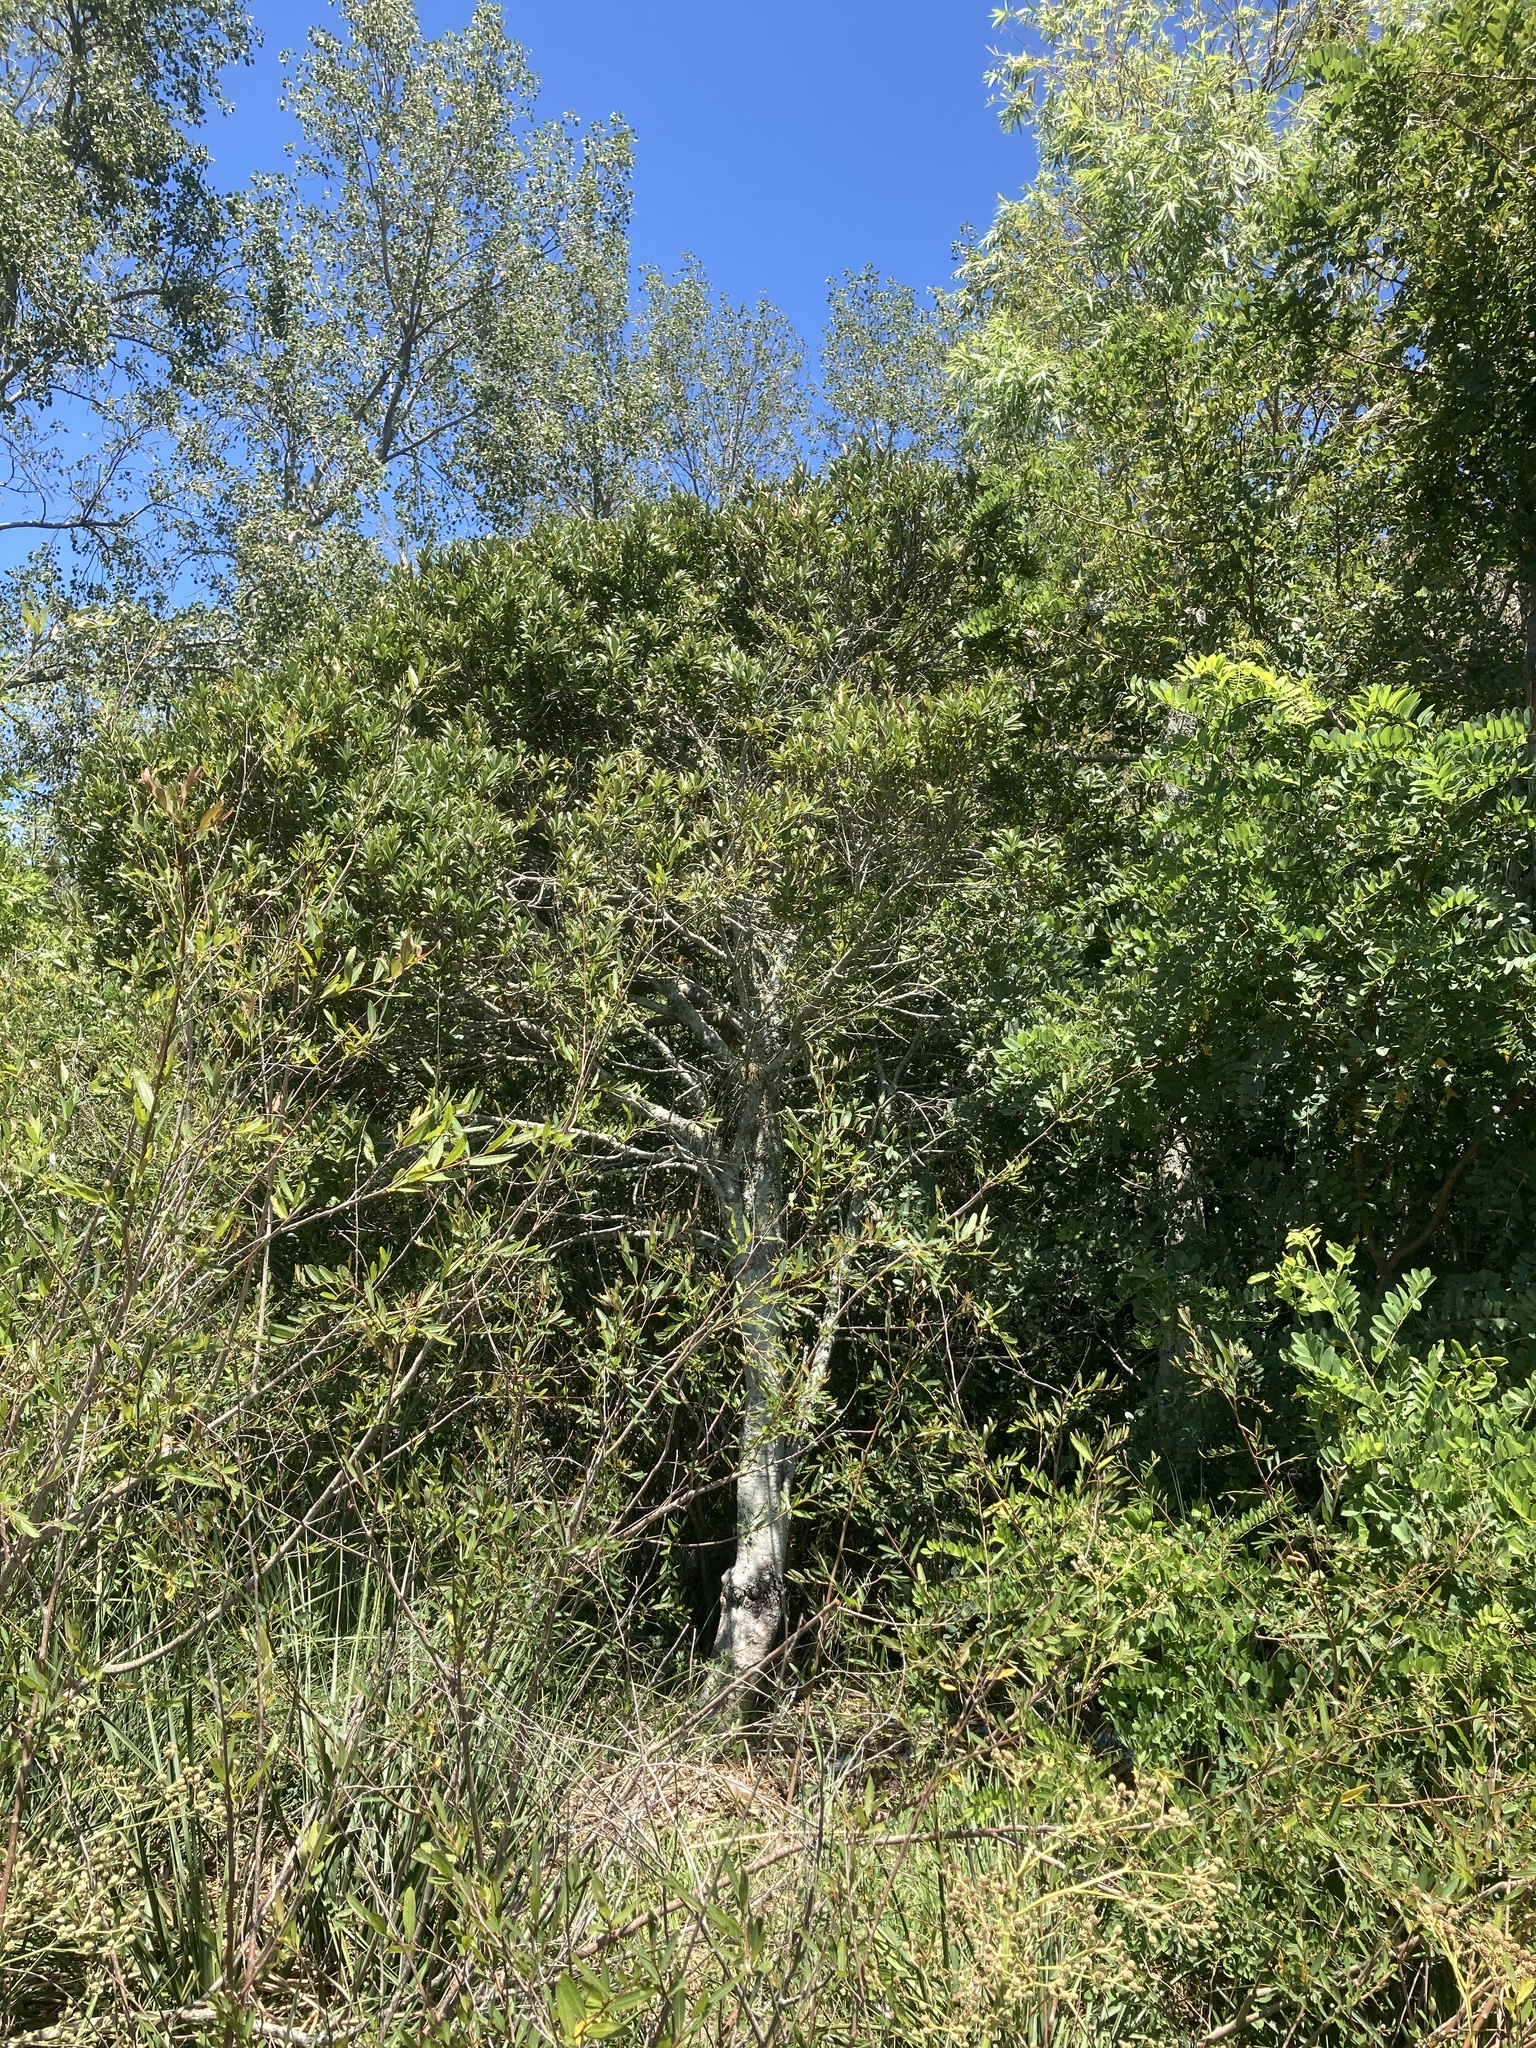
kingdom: Plantae
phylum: Tracheophyta
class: Magnoliopsida
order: Ericales
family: Primulaceae
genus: Myrsine
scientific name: Myrsine laetevirens
